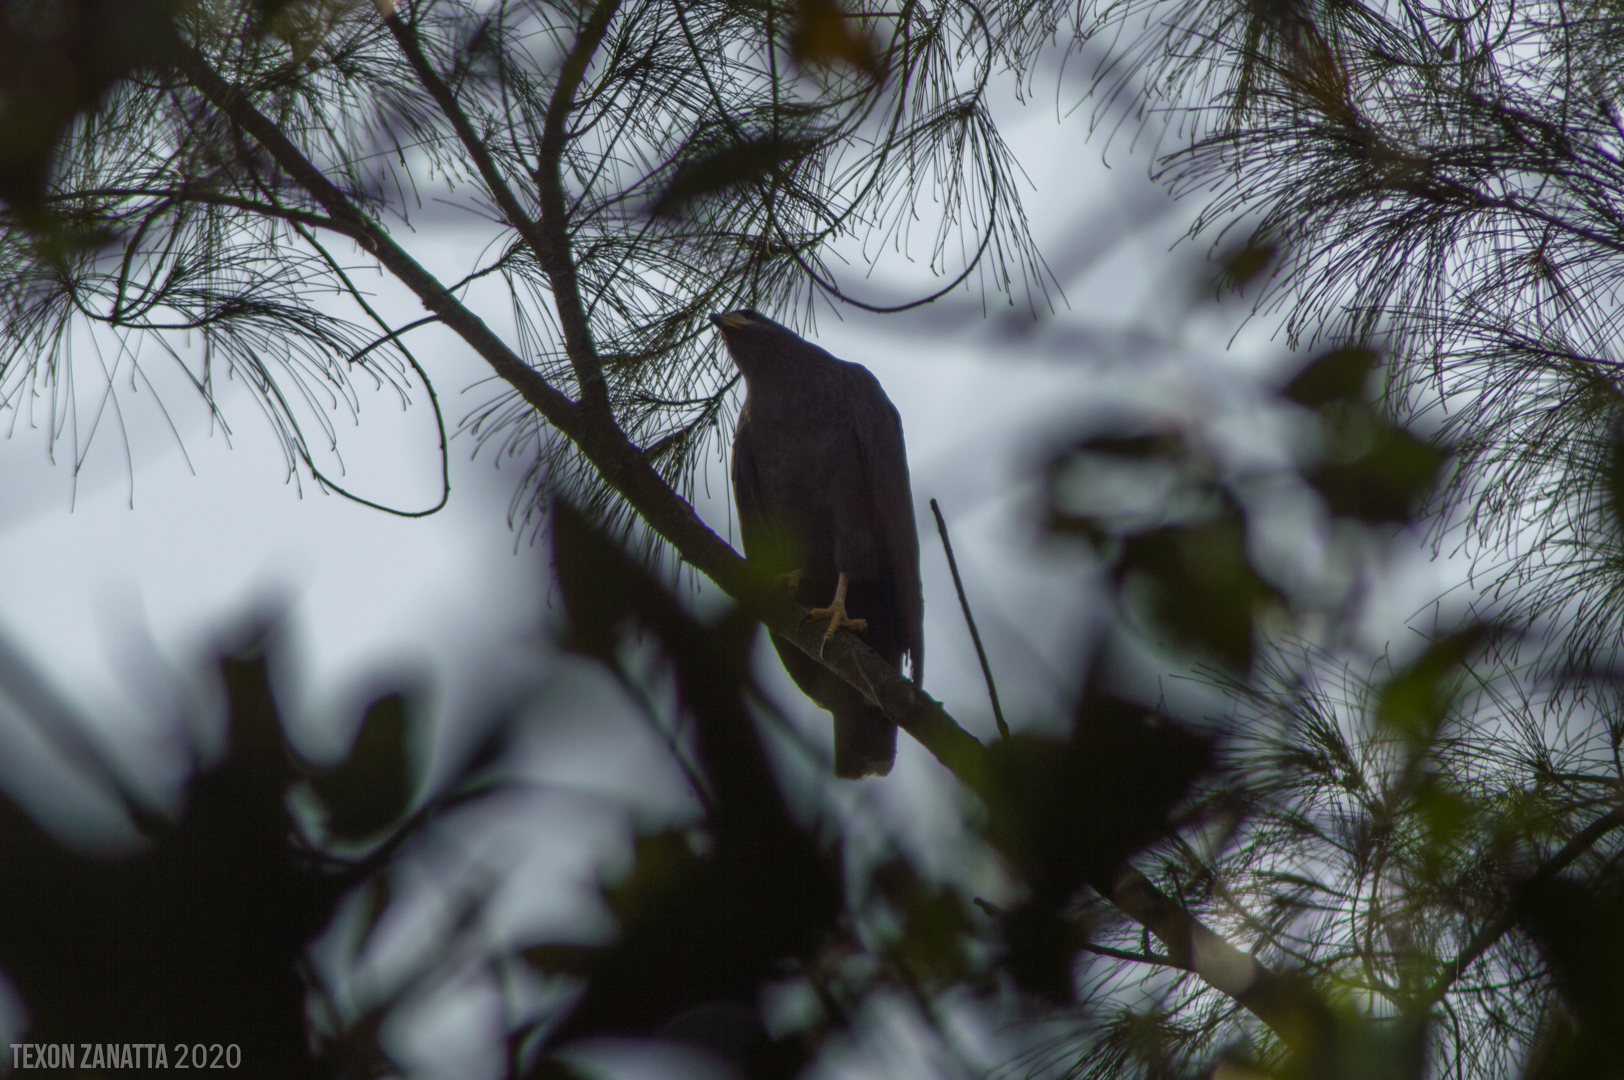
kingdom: Animalia
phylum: Chordata
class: Aves
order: Accipitriformes
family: Accipitridae
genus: Buteogallus
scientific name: Buteogallus anthracinus
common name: Common black hawk
